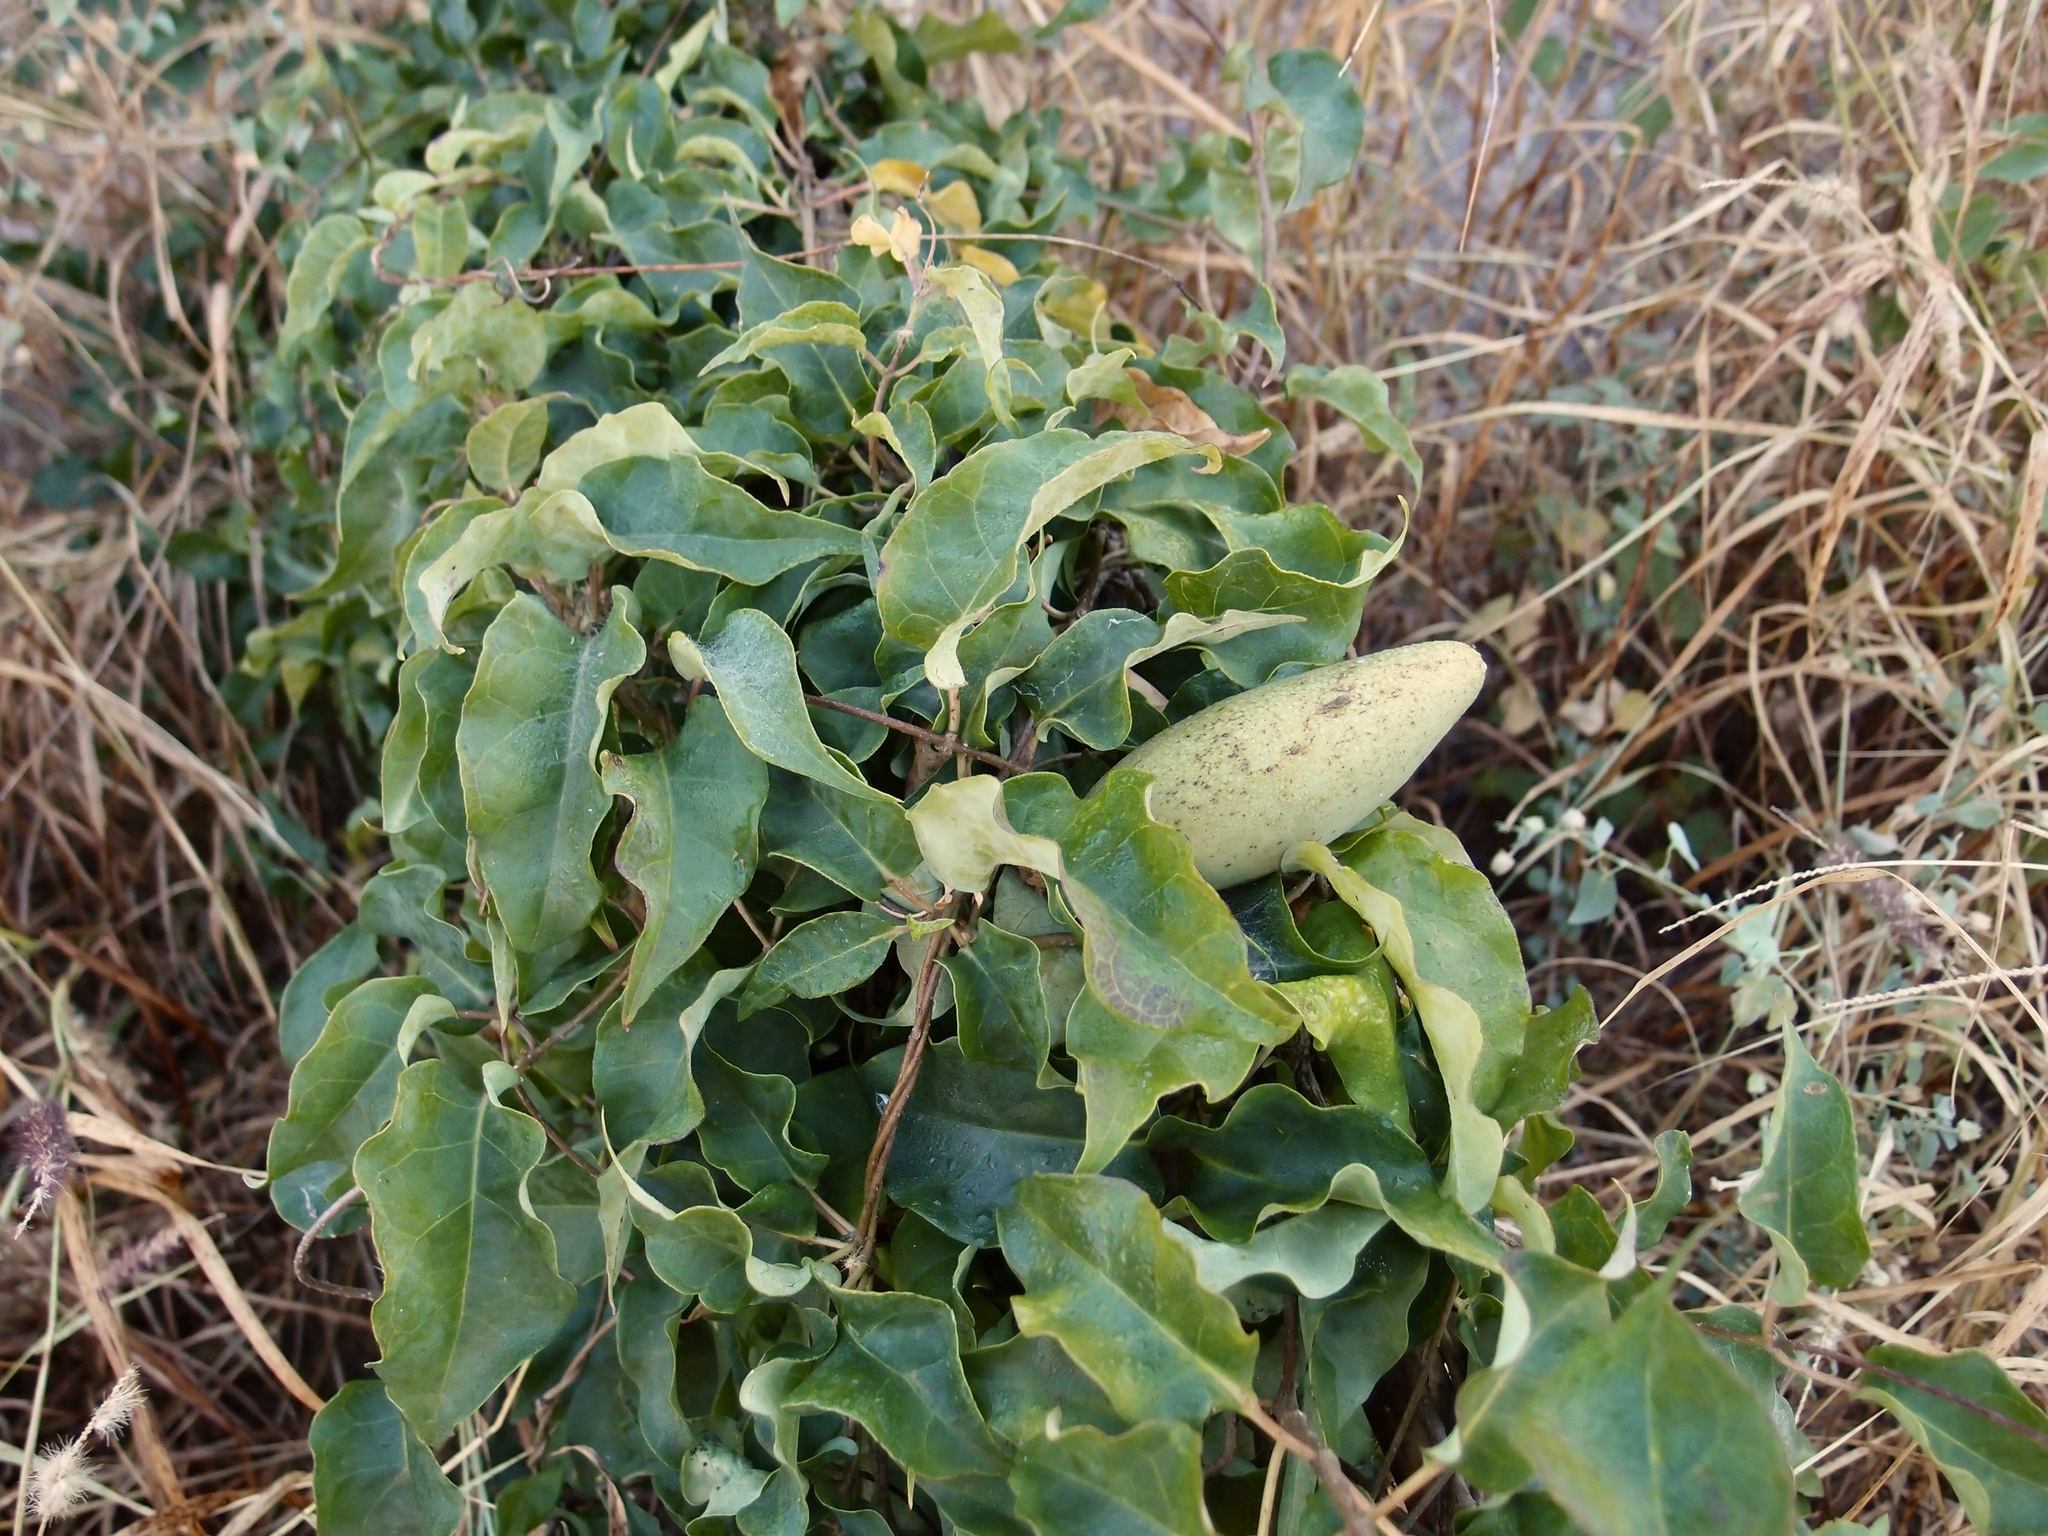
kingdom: Plantae
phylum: Tracheophyta
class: Magnoliopsida
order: Gentianales
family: Apocynaceae
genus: Ruehssia
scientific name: Ruehssia edulis
